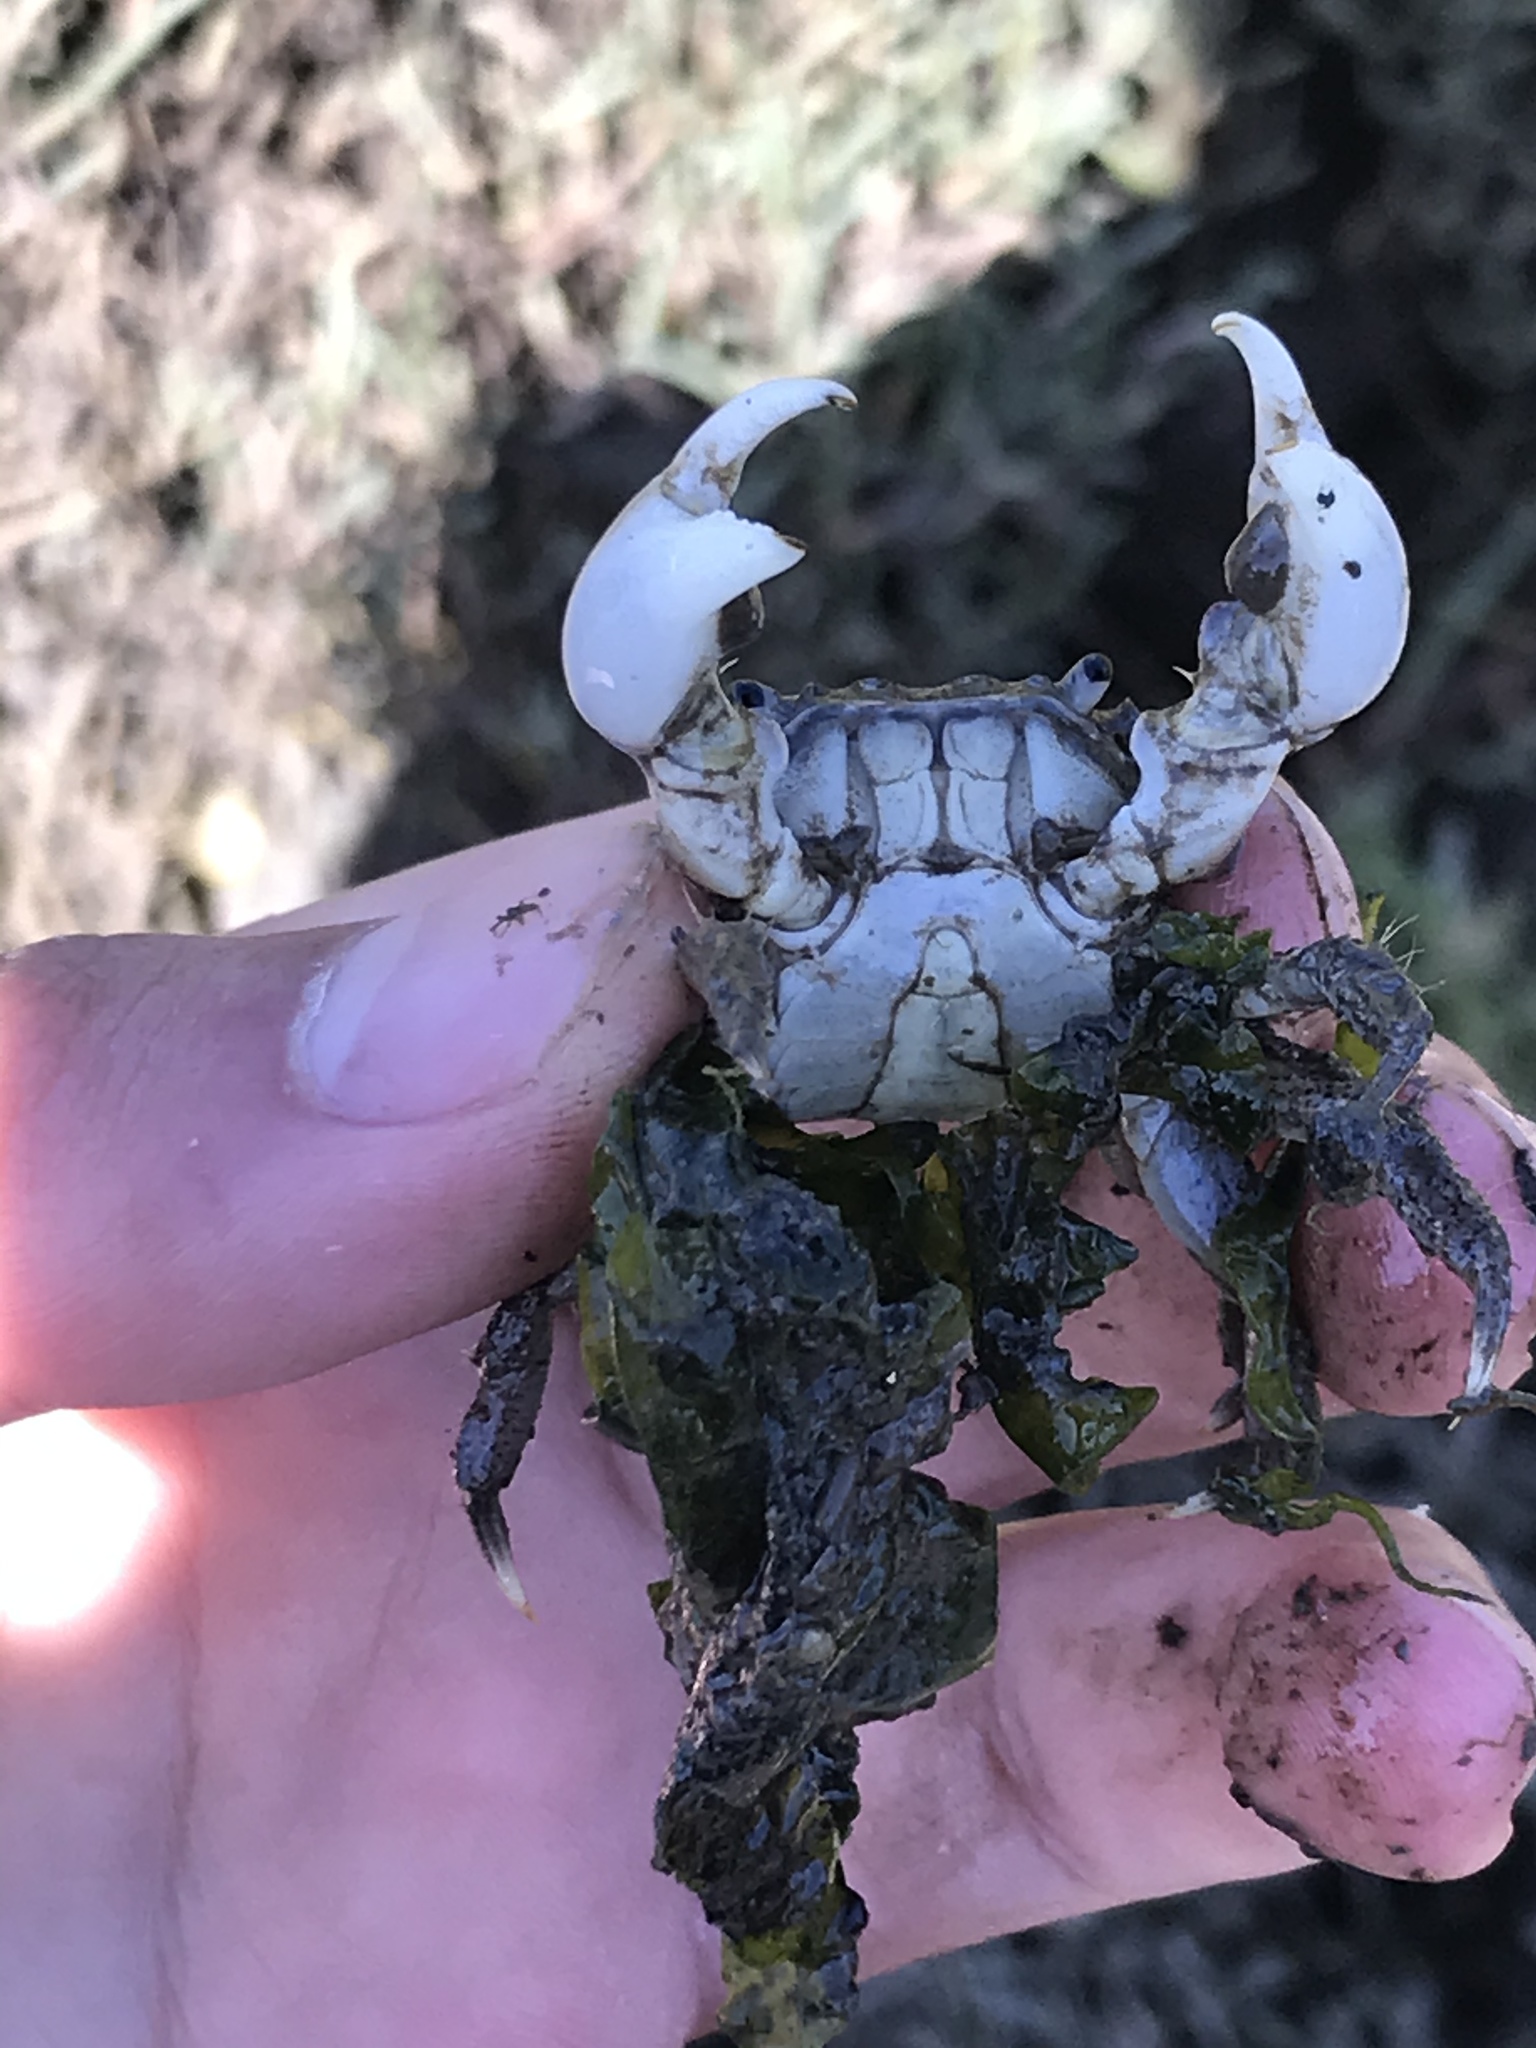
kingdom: Animalia
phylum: Arthropoda
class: Malacostraca
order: Decapoda
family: Varunidae
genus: Hemigrapsus
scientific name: Hemigrapsus oregonensis
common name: Yellow shore crab
